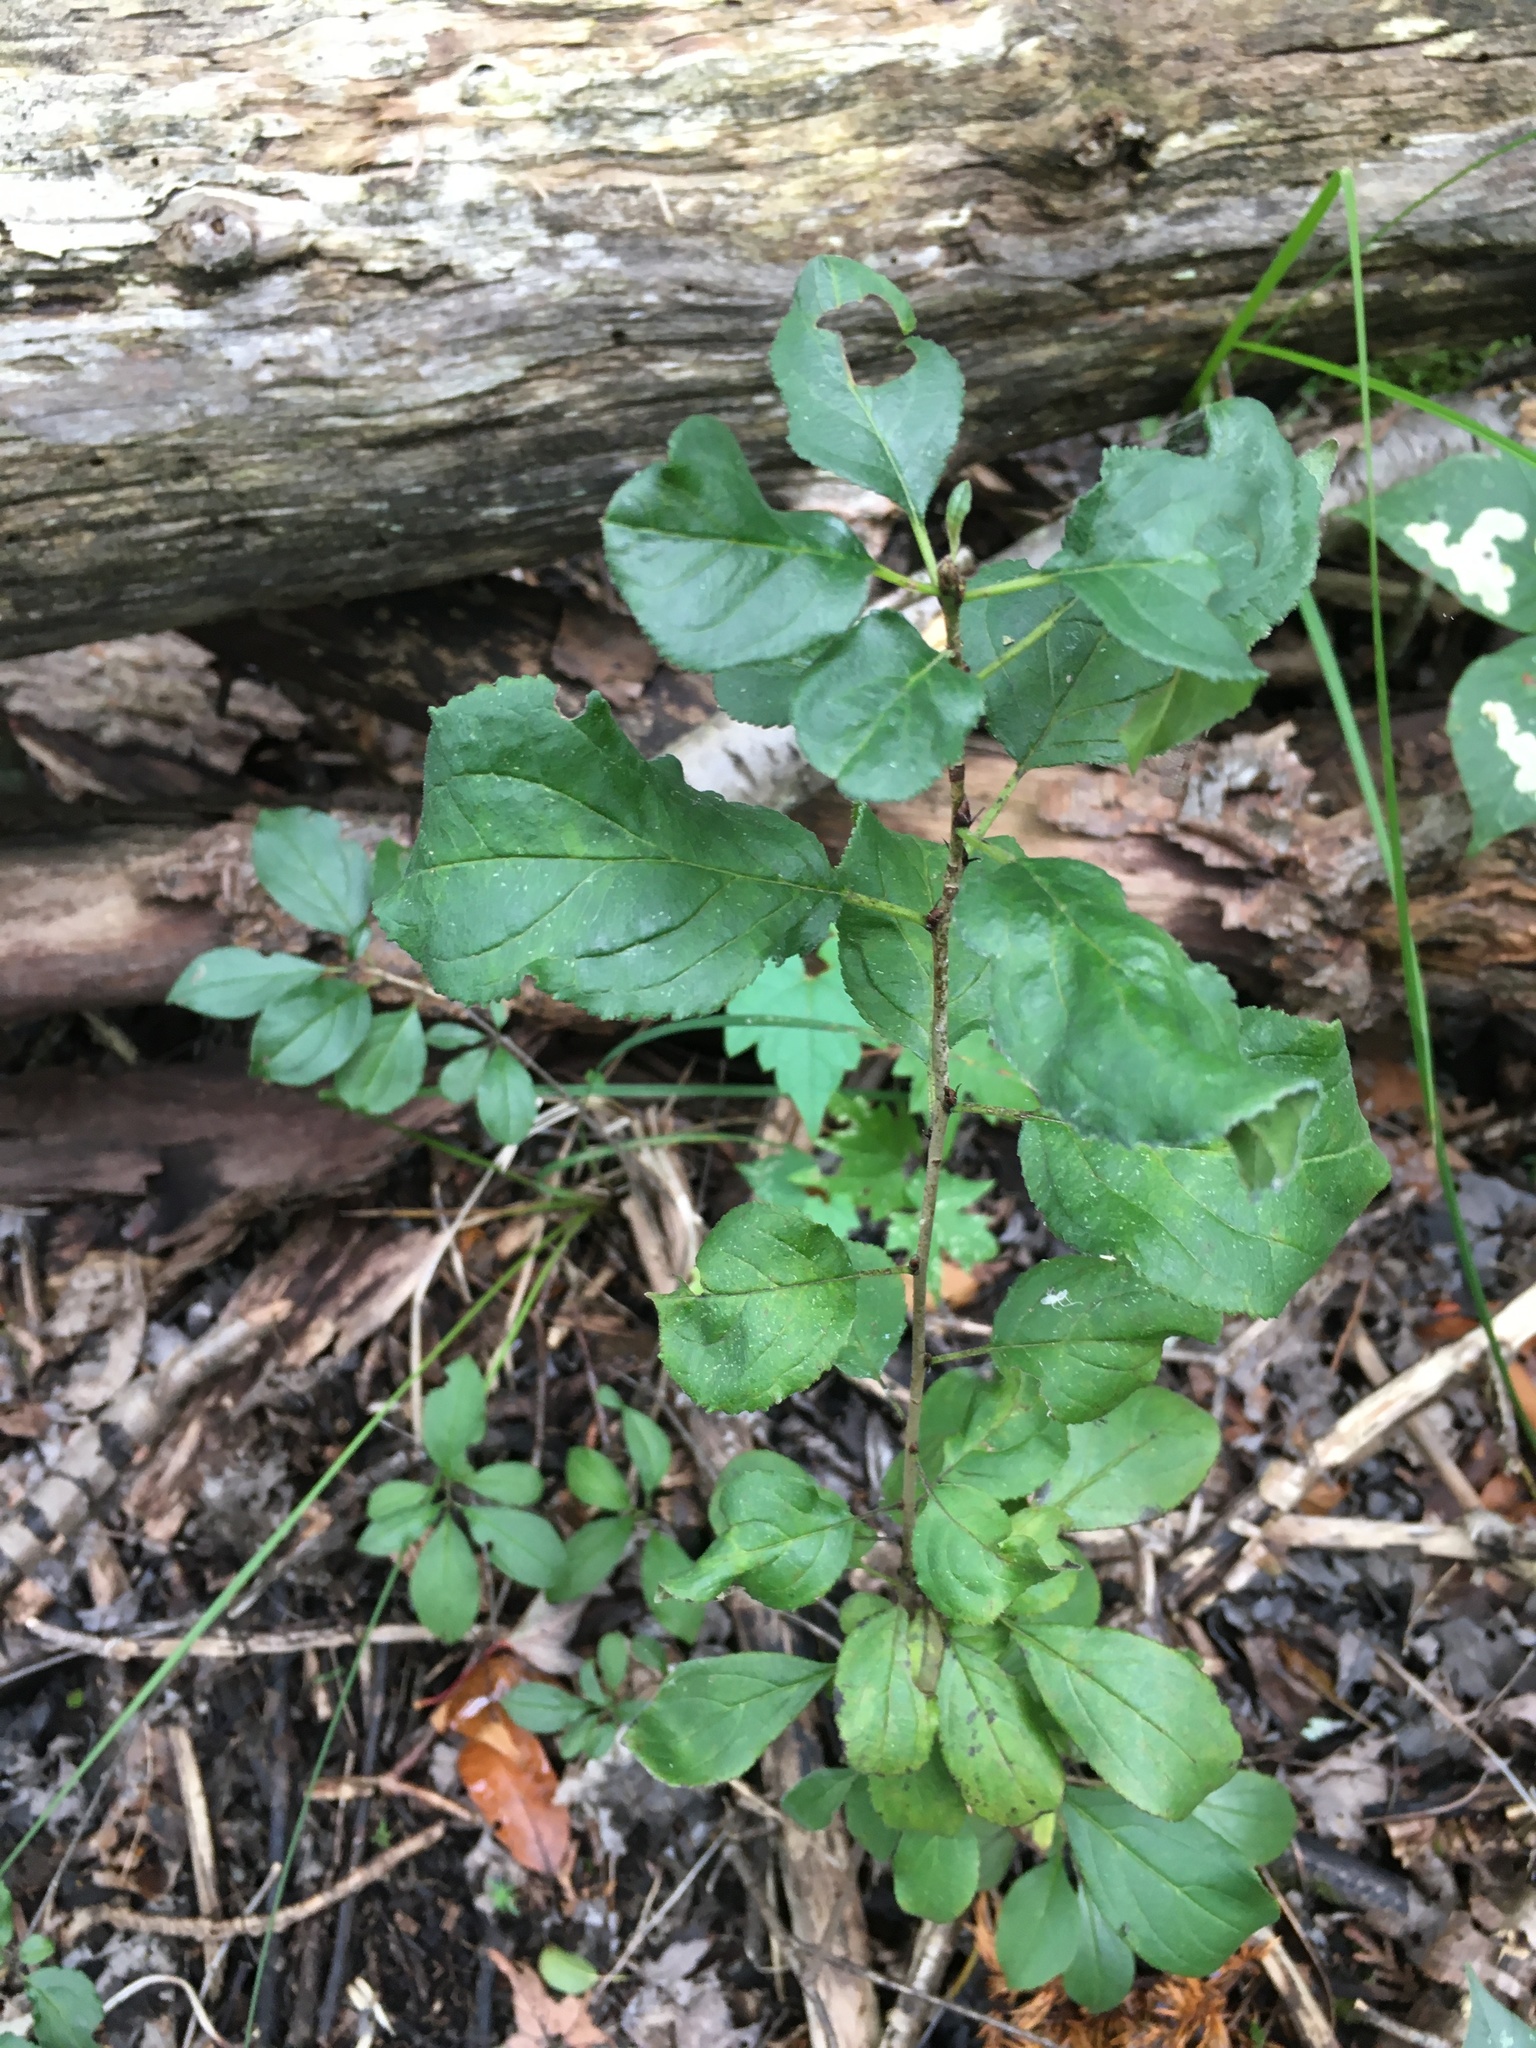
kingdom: Plantae
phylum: Tracheophyta
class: Magnoliopsida
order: Rosales
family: Rhamnaceae
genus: Rhamnus
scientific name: Rhamnus cathartica
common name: Common buckthorn
